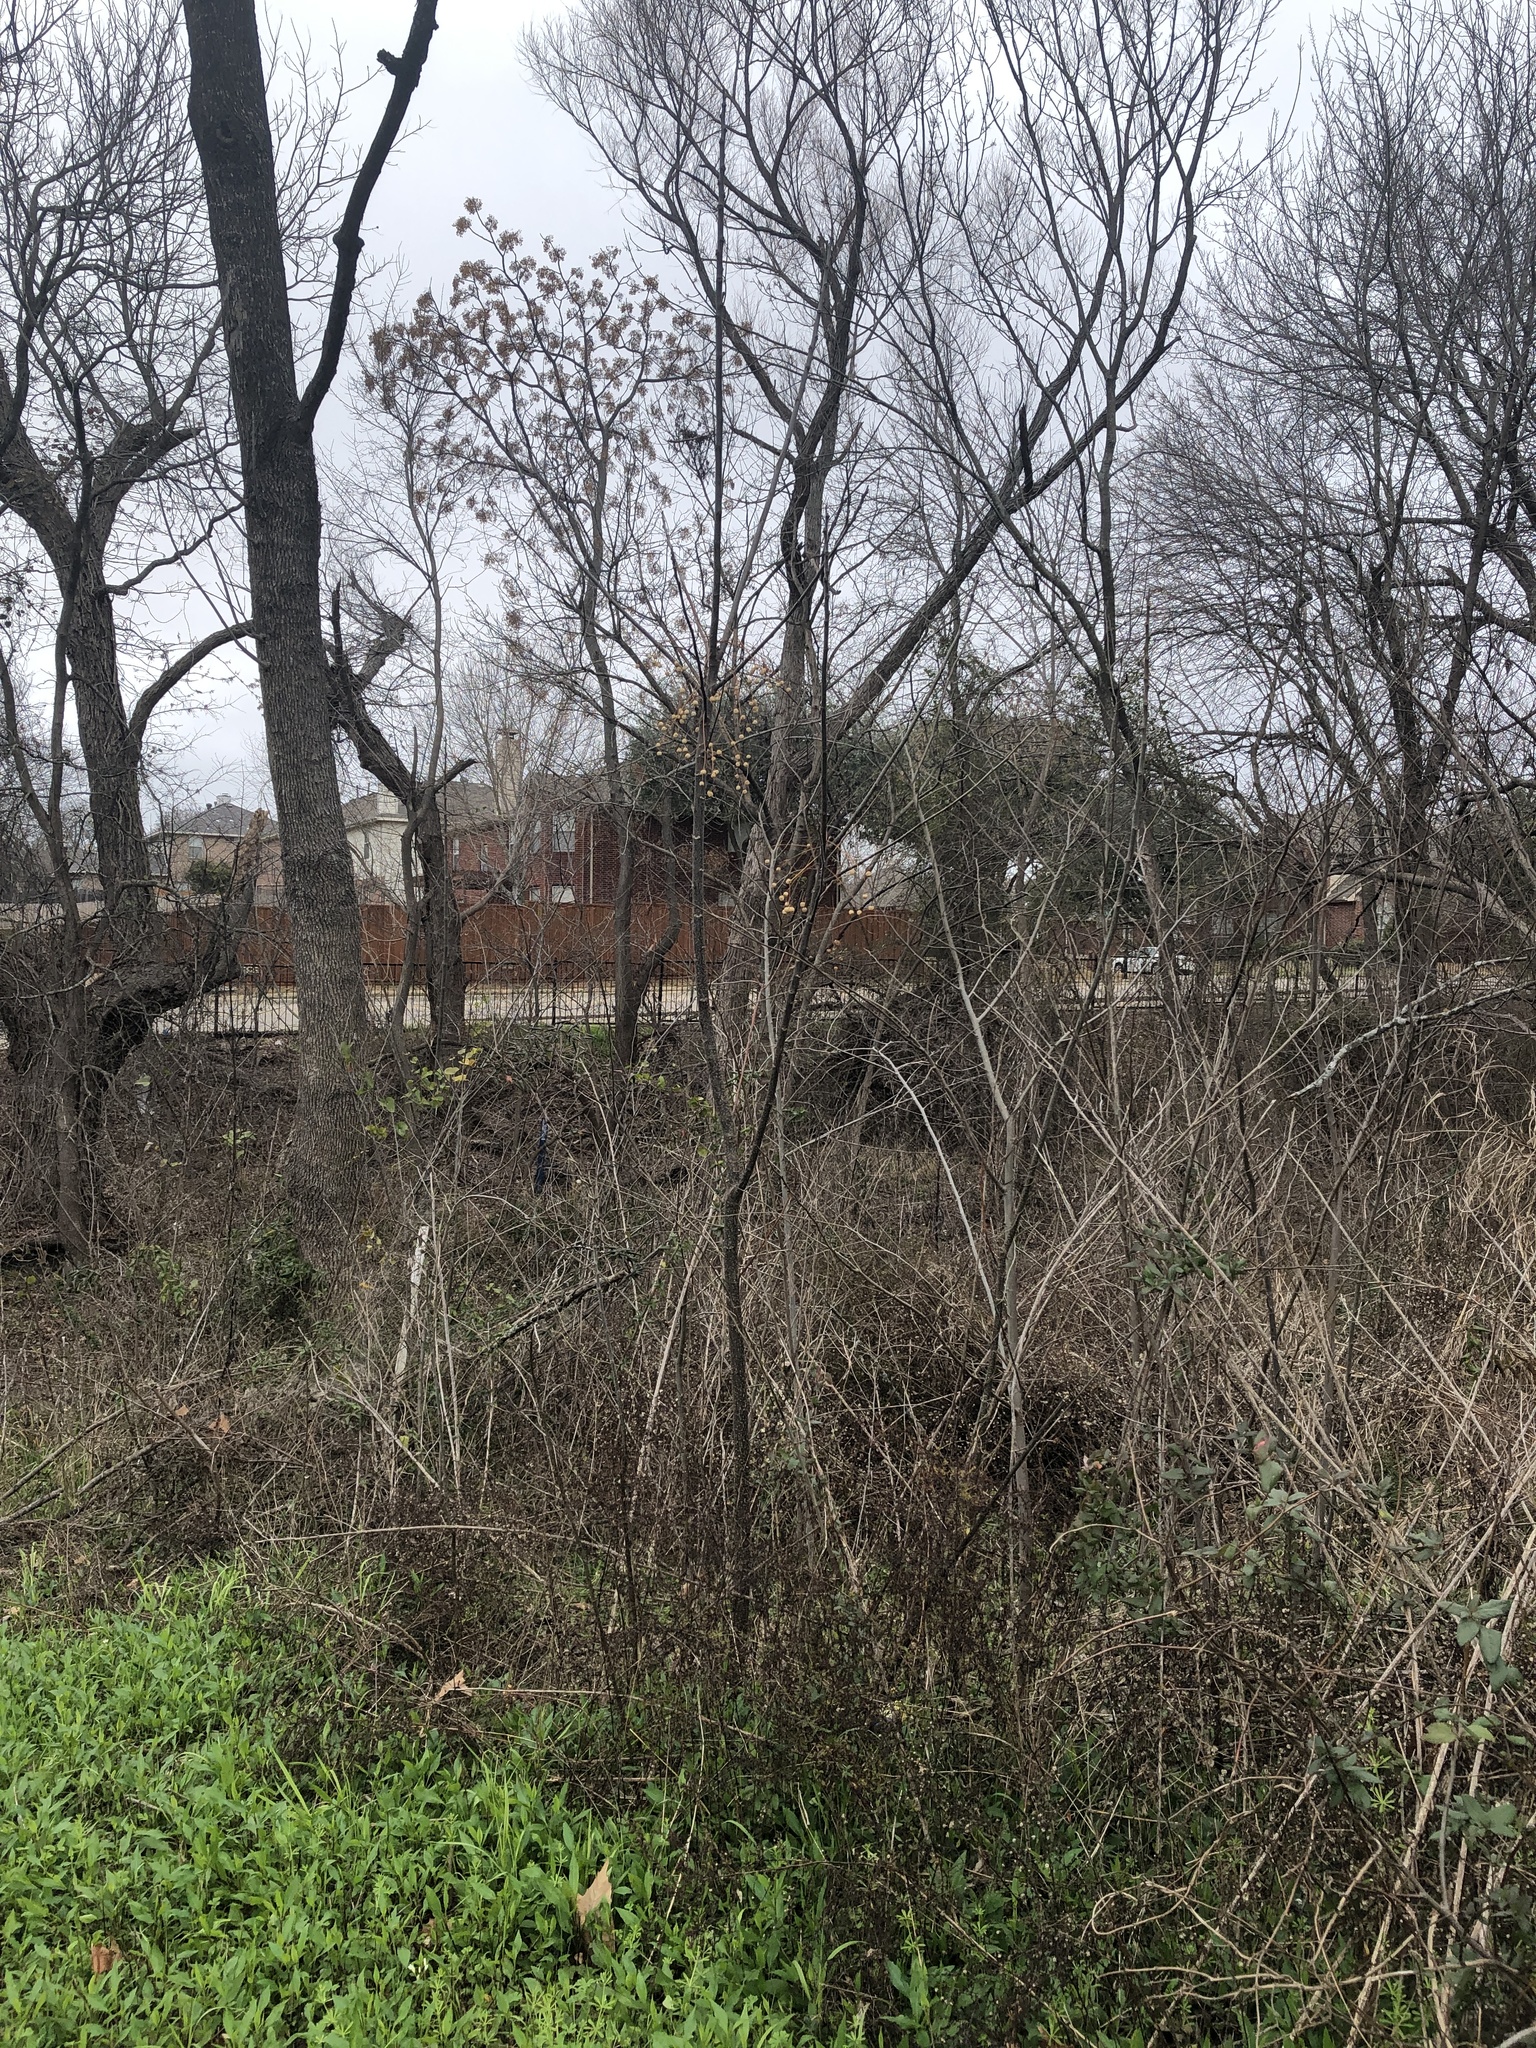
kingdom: Plantae
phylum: Tracheophyta
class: Magnoliopsida
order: Sapindales
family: Meliaceae
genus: Melia
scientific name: Melia azedarach
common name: Chinaberrytree
